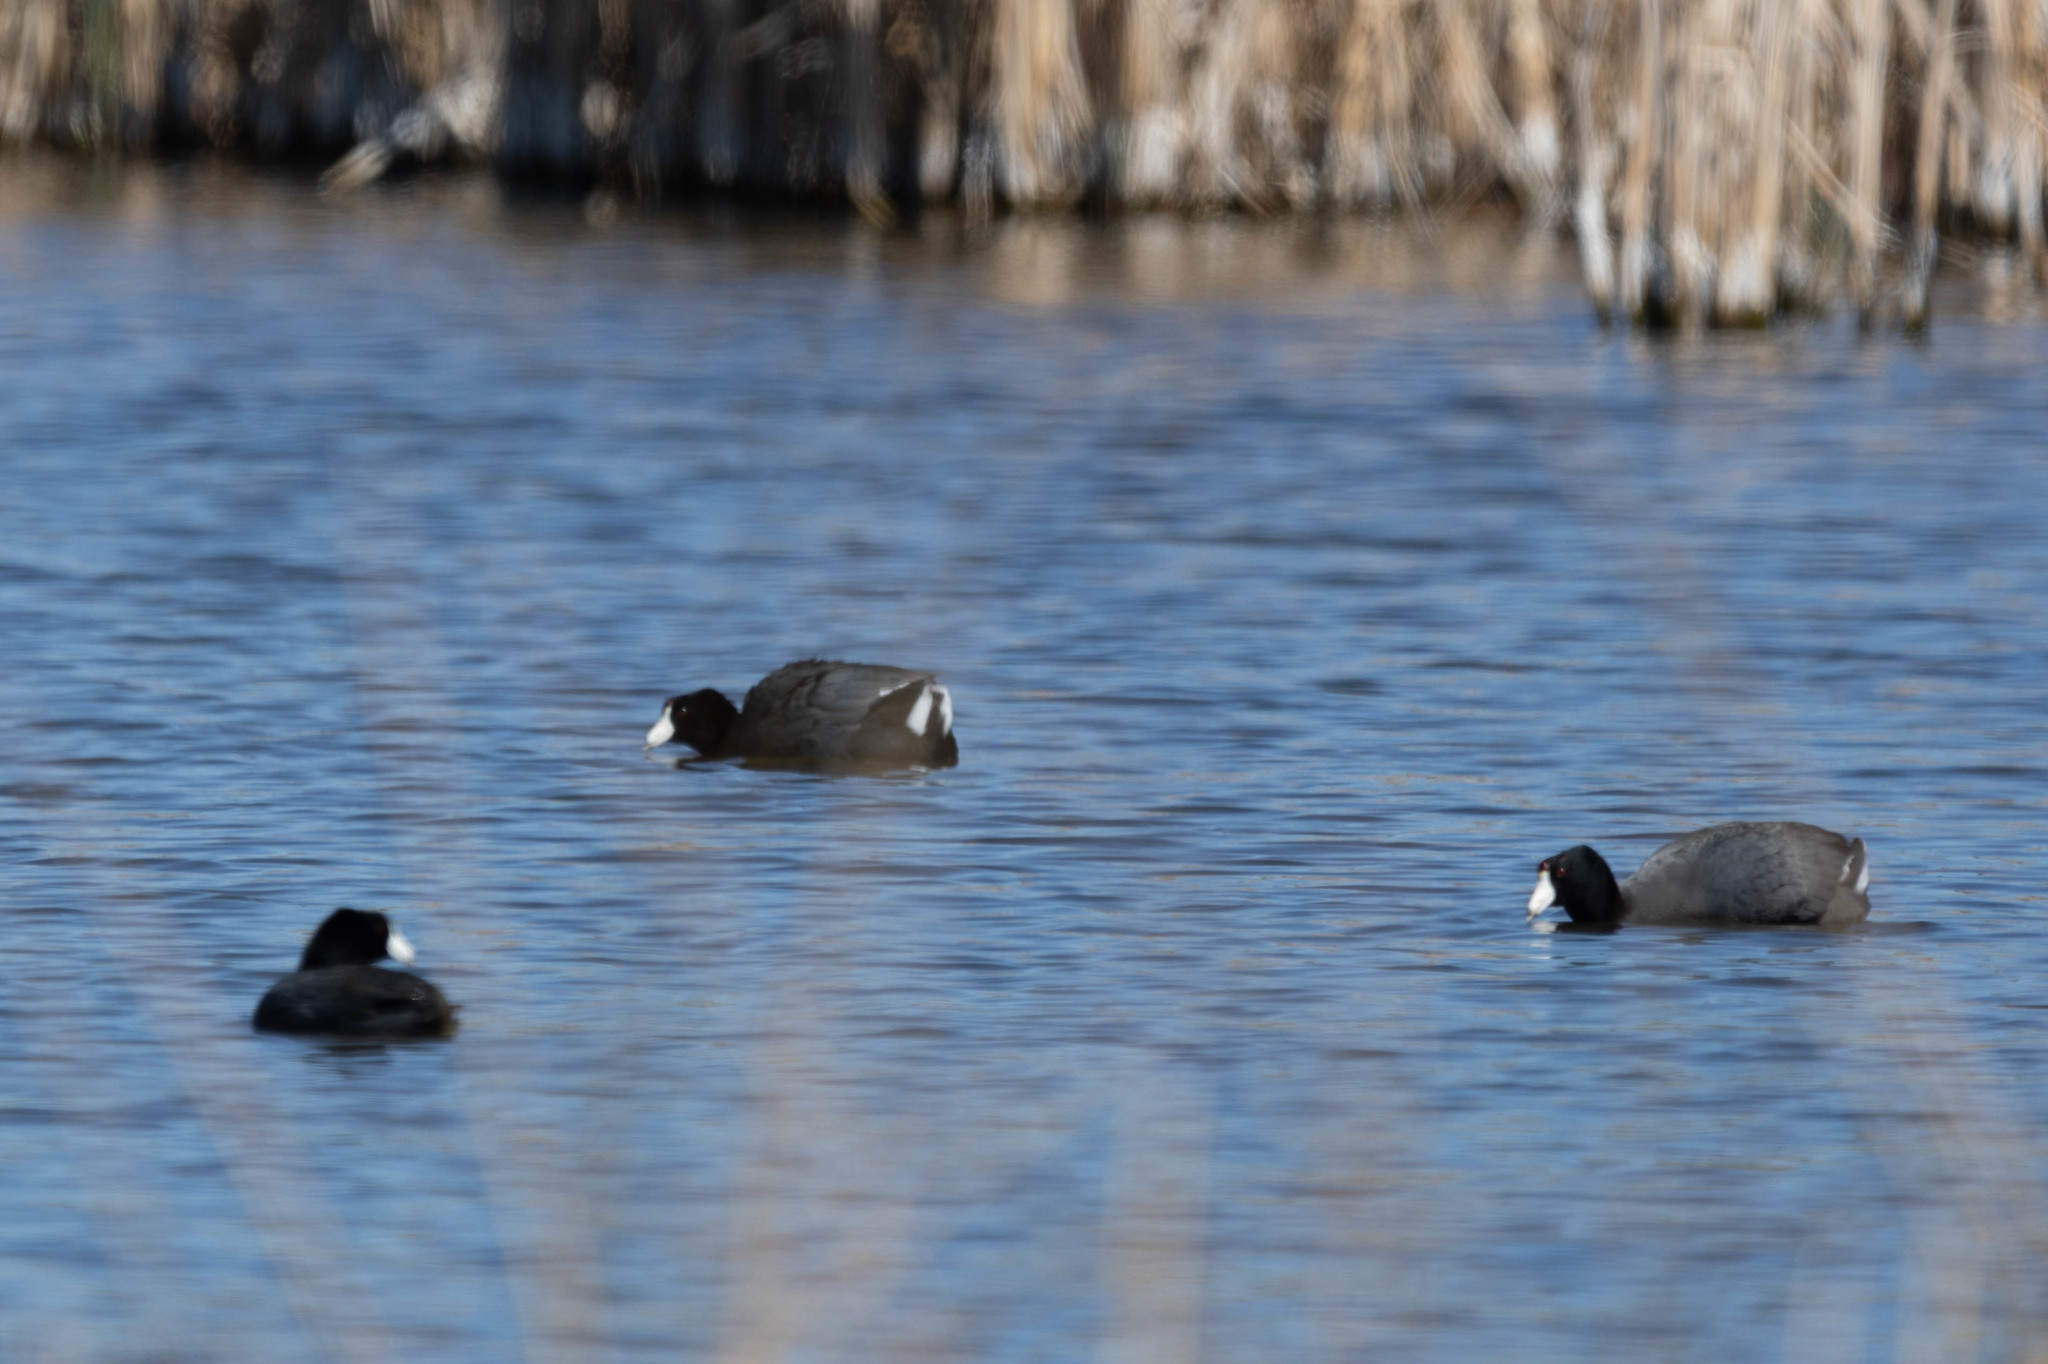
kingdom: Animalia
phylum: Chordata
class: Aves
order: Gruiformes
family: Rallidae
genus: Fulica
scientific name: Fulica americana
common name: American coot
